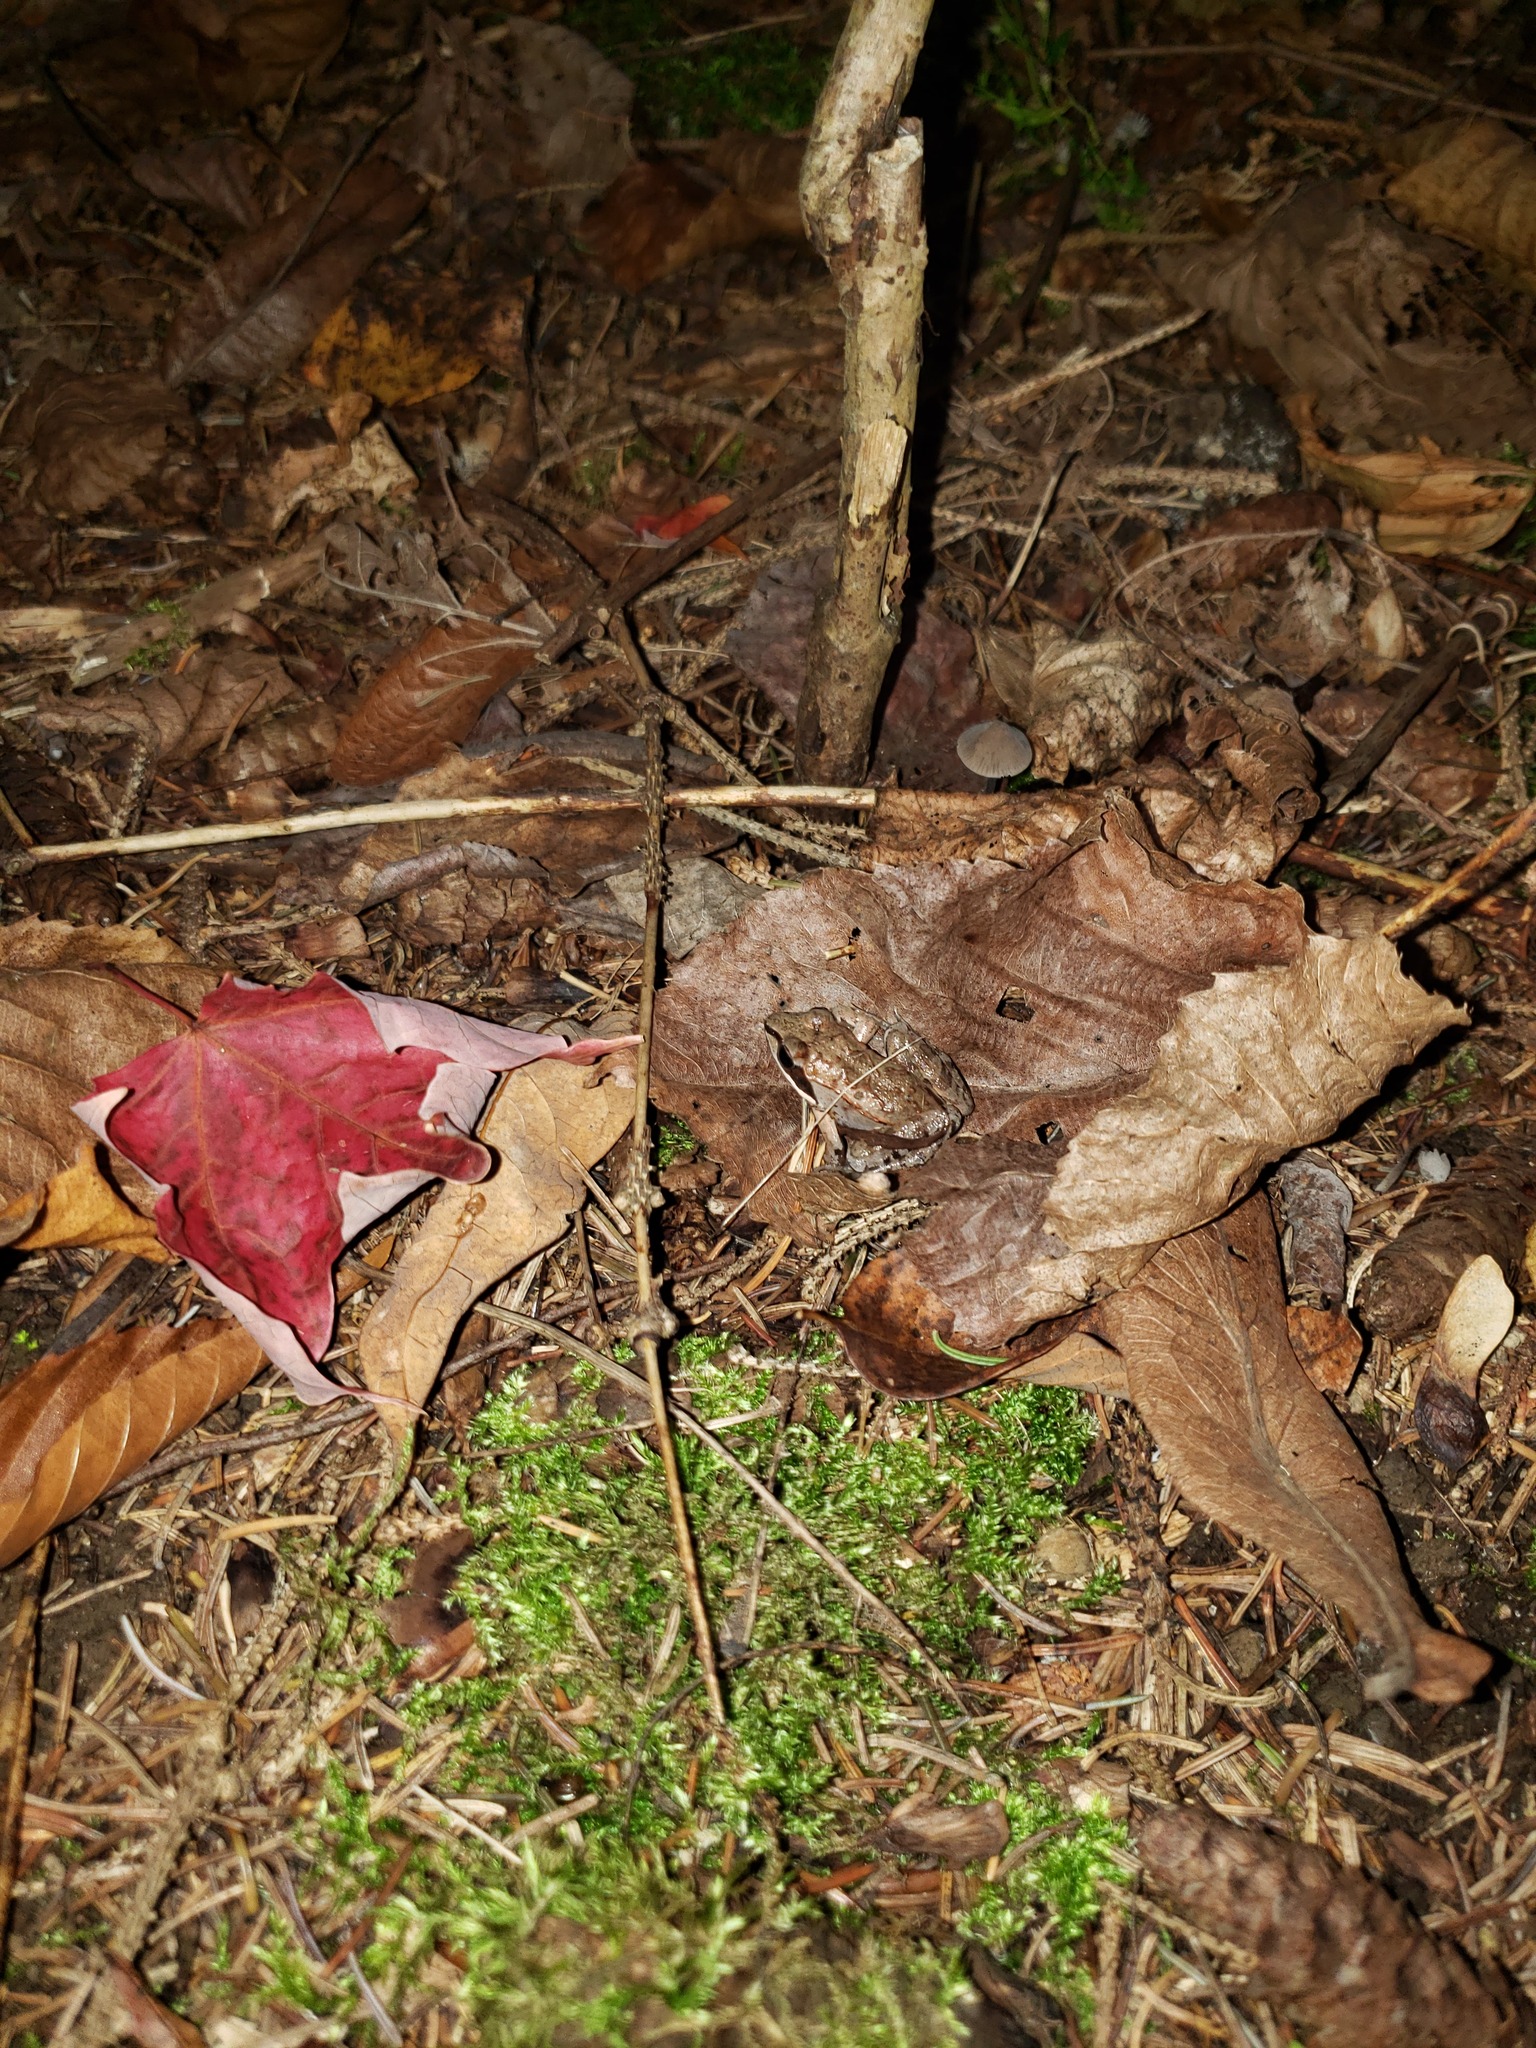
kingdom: Animalia
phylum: Chordata
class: Amphibia
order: Anura
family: Ranidae
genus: Lithobates
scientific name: Lithobates sylvaticus
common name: Wood frog
